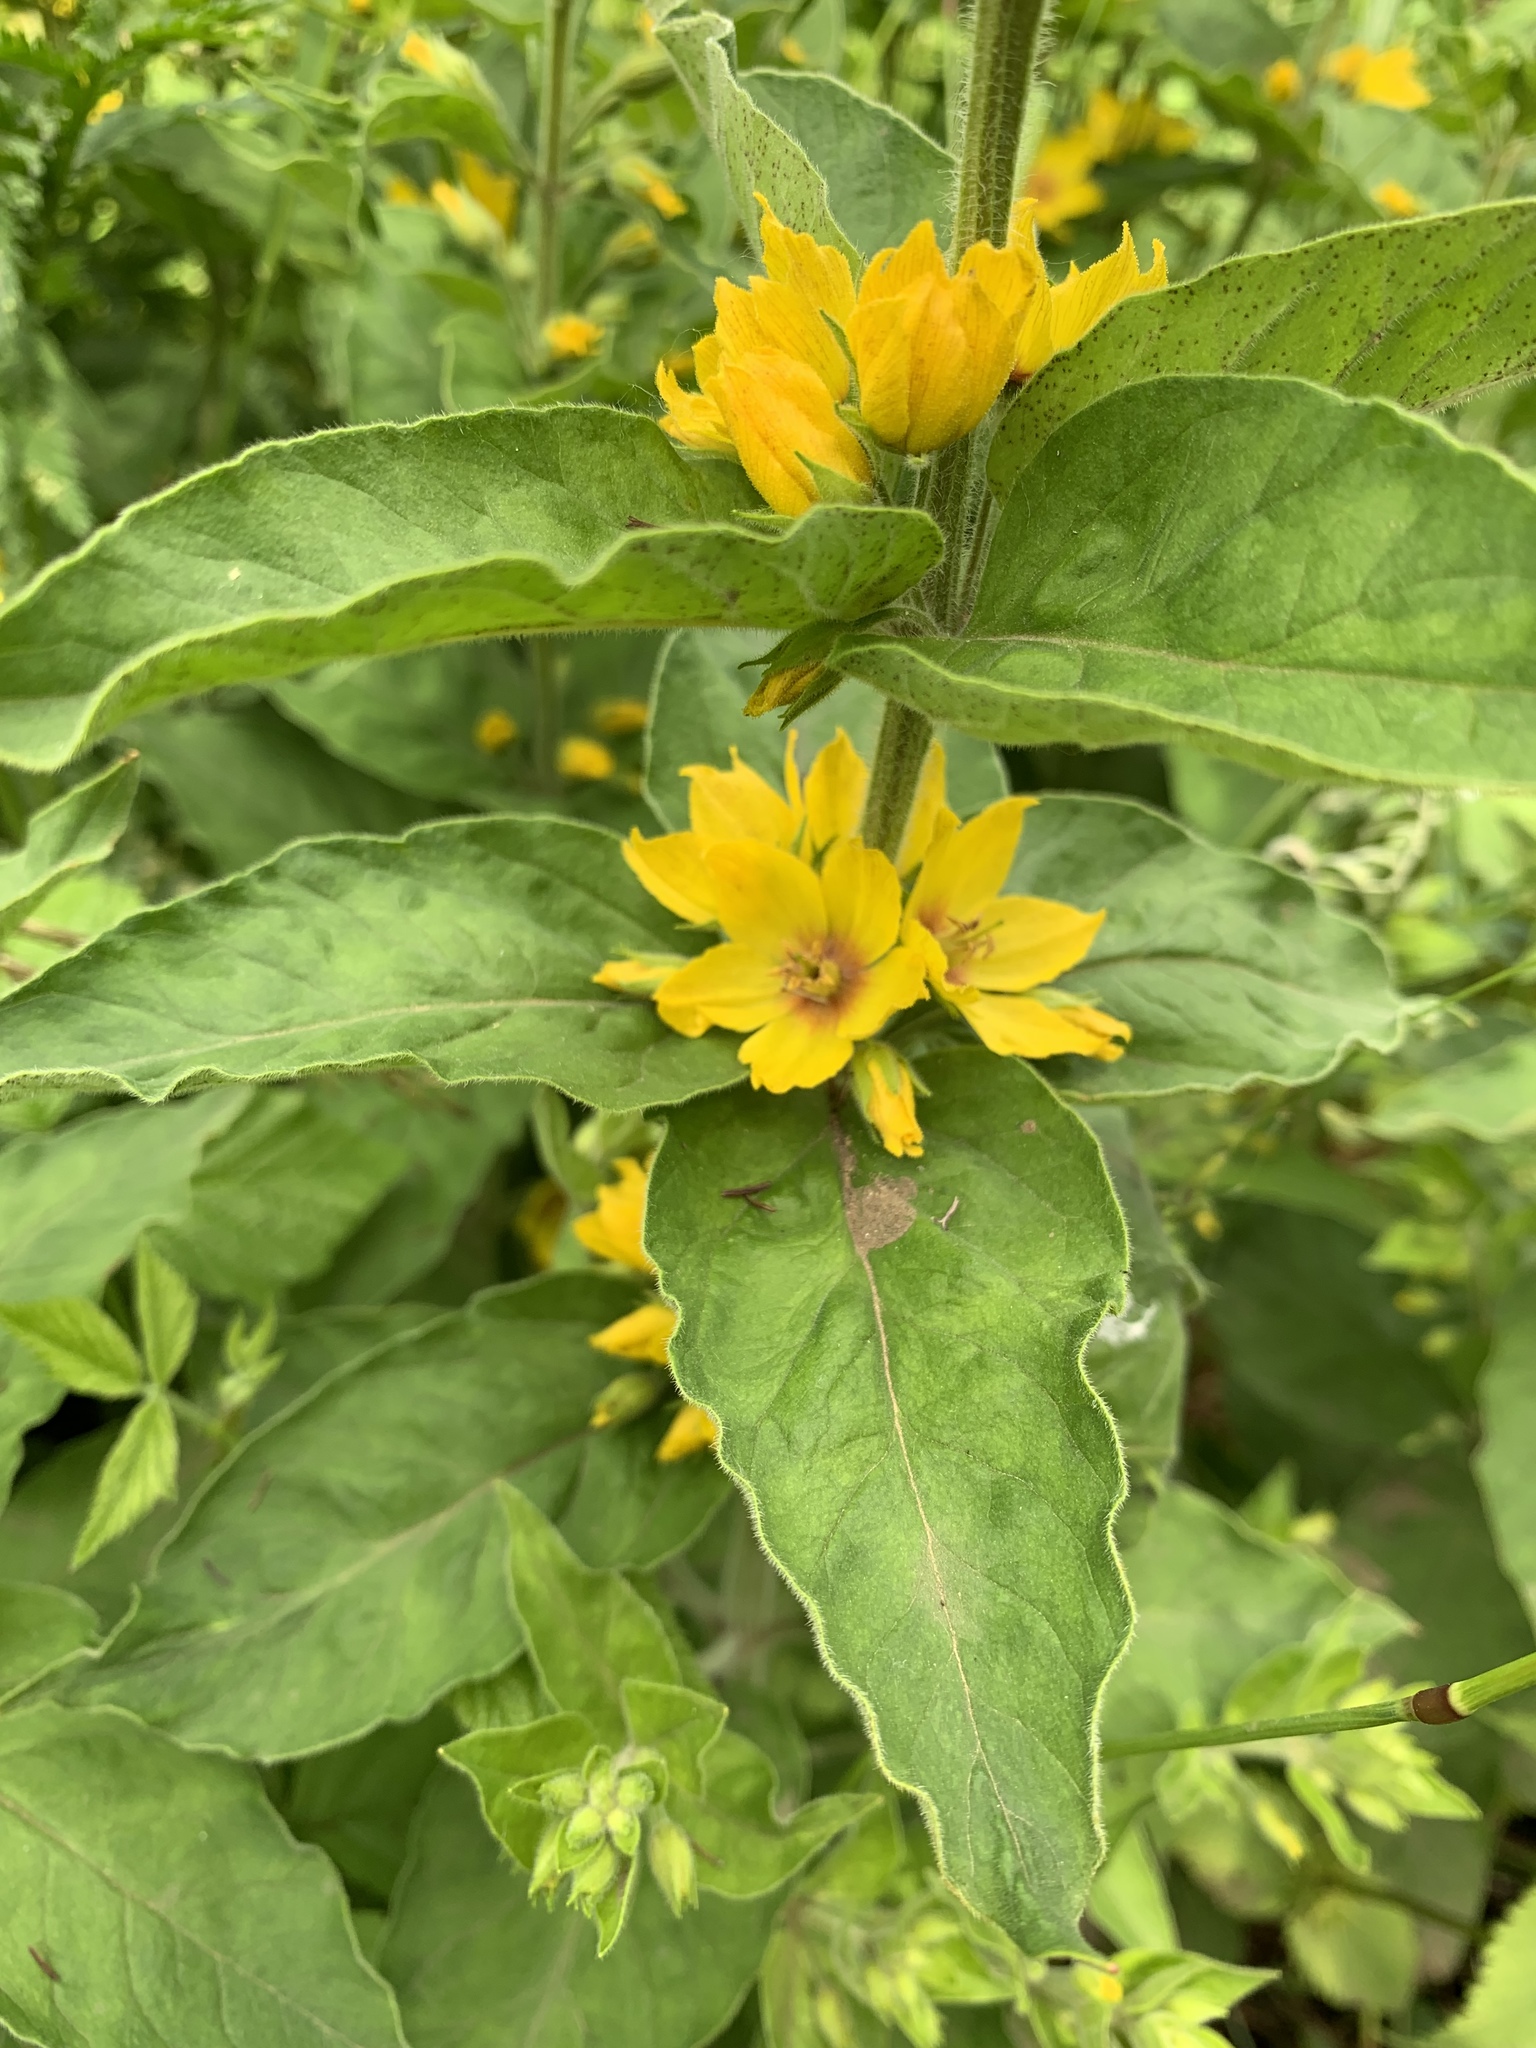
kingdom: Plantae
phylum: Tracheophyta
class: Magnoliopsida
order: Ericales
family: Primulaceae
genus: Lysimachia
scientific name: Lysimachia punctata
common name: Dotted loosestrife
